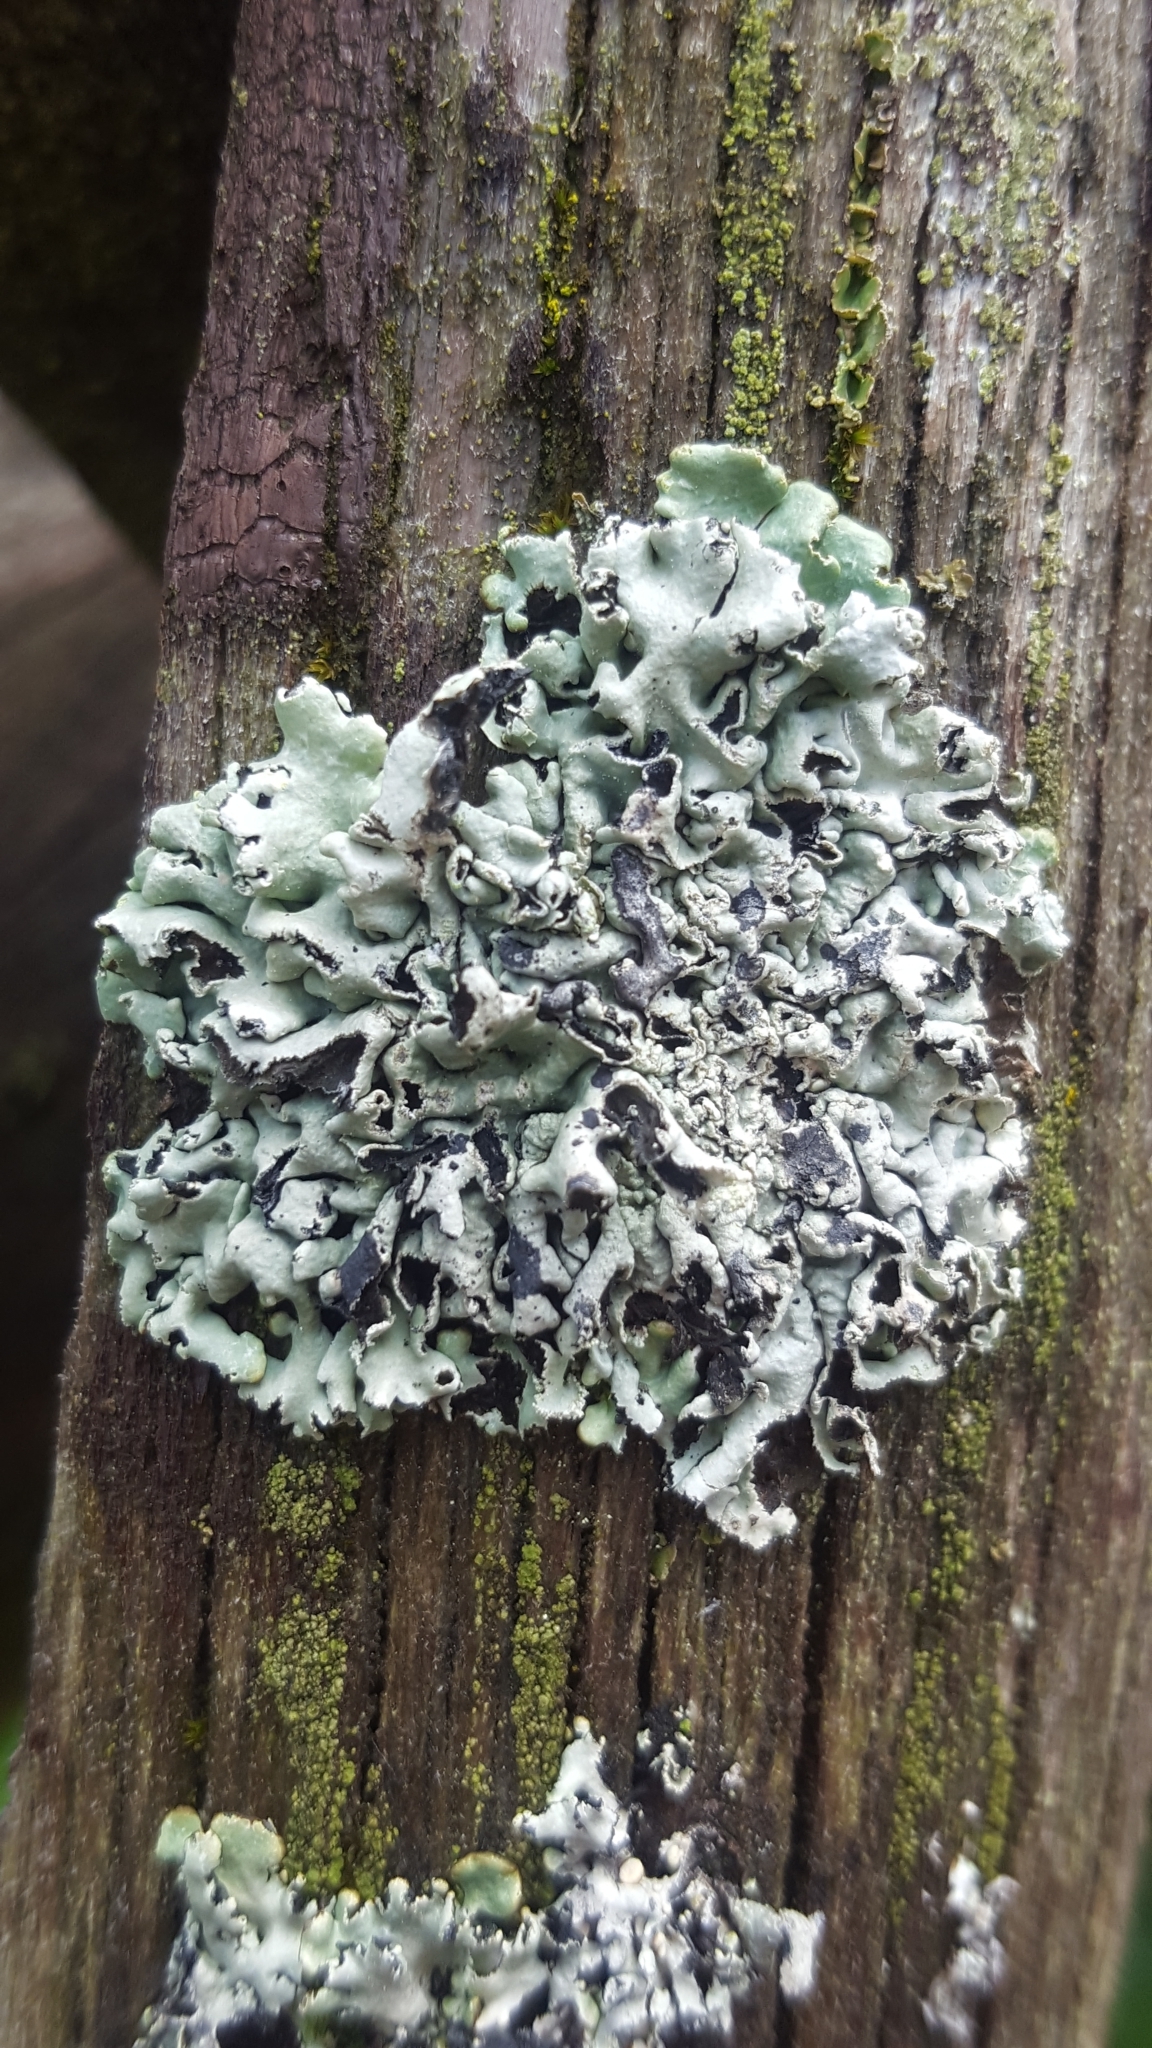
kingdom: Fungi
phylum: Ascomycota
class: Lecanoromycetes
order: Lecanorales
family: Parmeliaceae
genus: Hypogymnia
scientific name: Hypogymnia physodes
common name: Dark crottle
